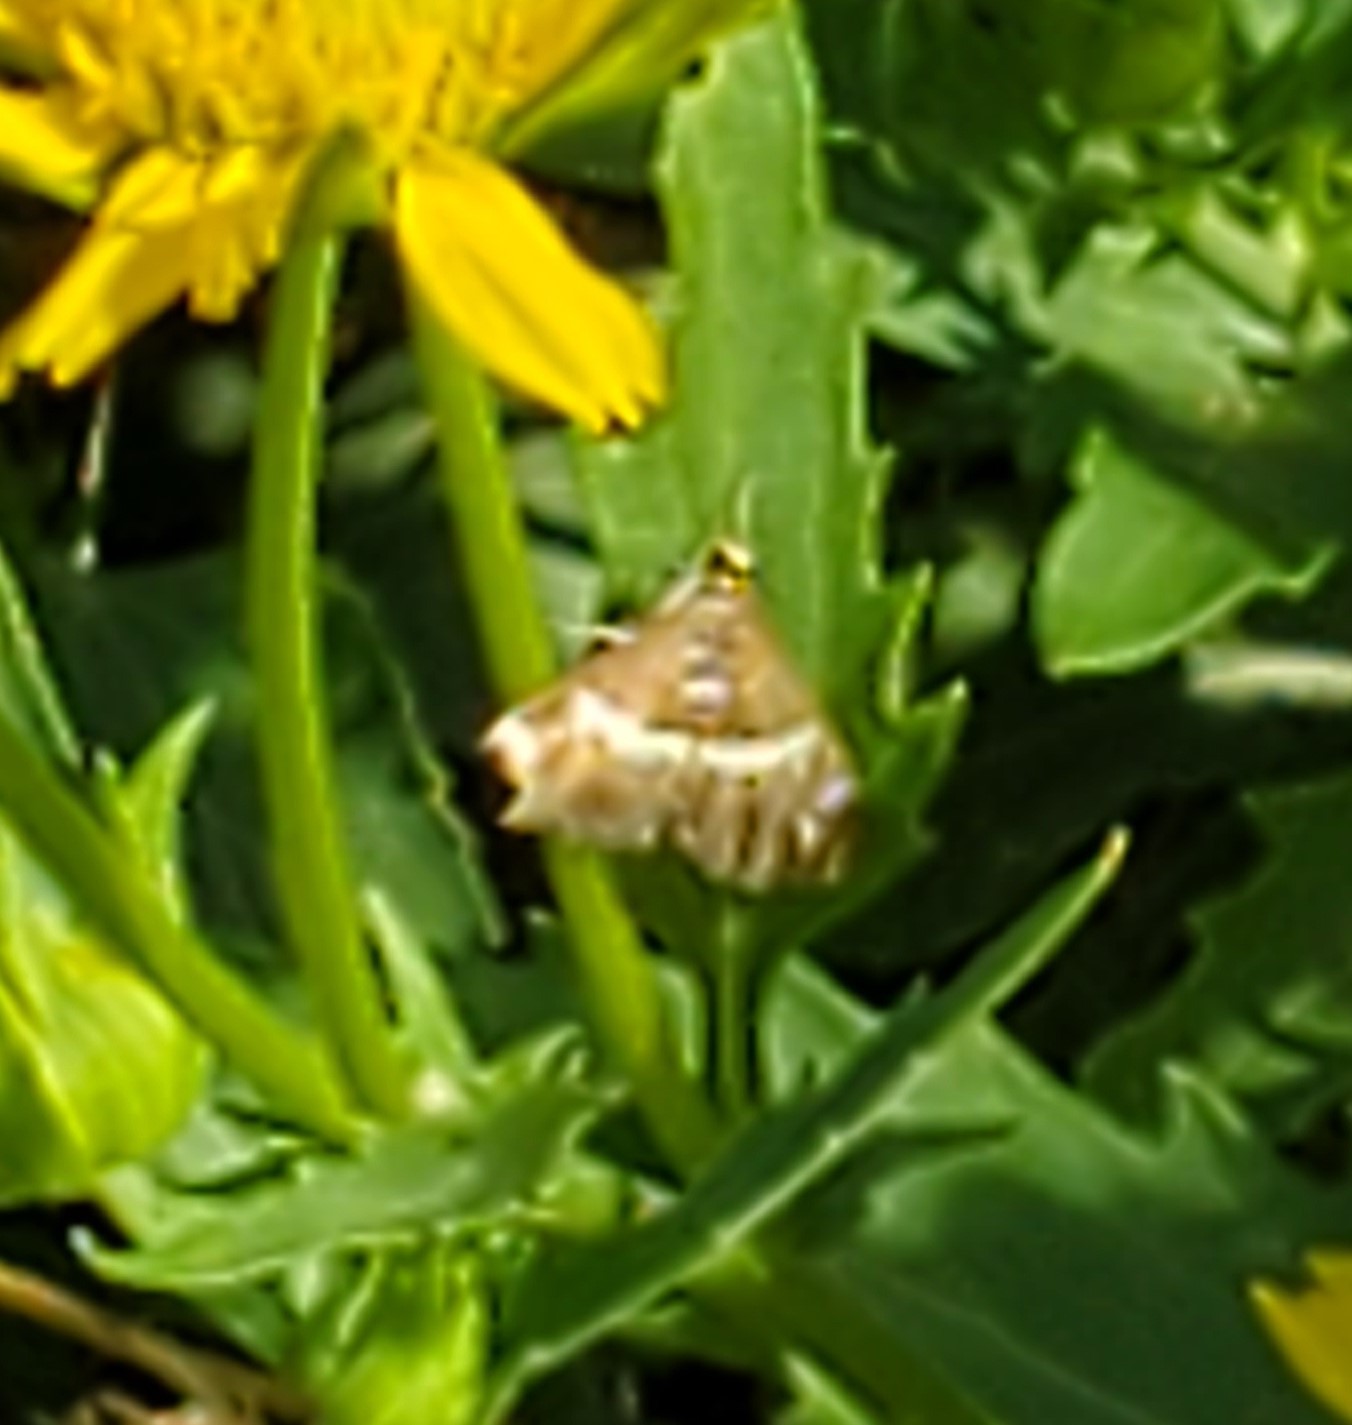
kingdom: Animalia
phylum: Arthropoda
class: Insecta
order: Lepidoptera
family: Crambidae
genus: Spoladea
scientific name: Spoladea recurvalis
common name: Beet webworm moth
